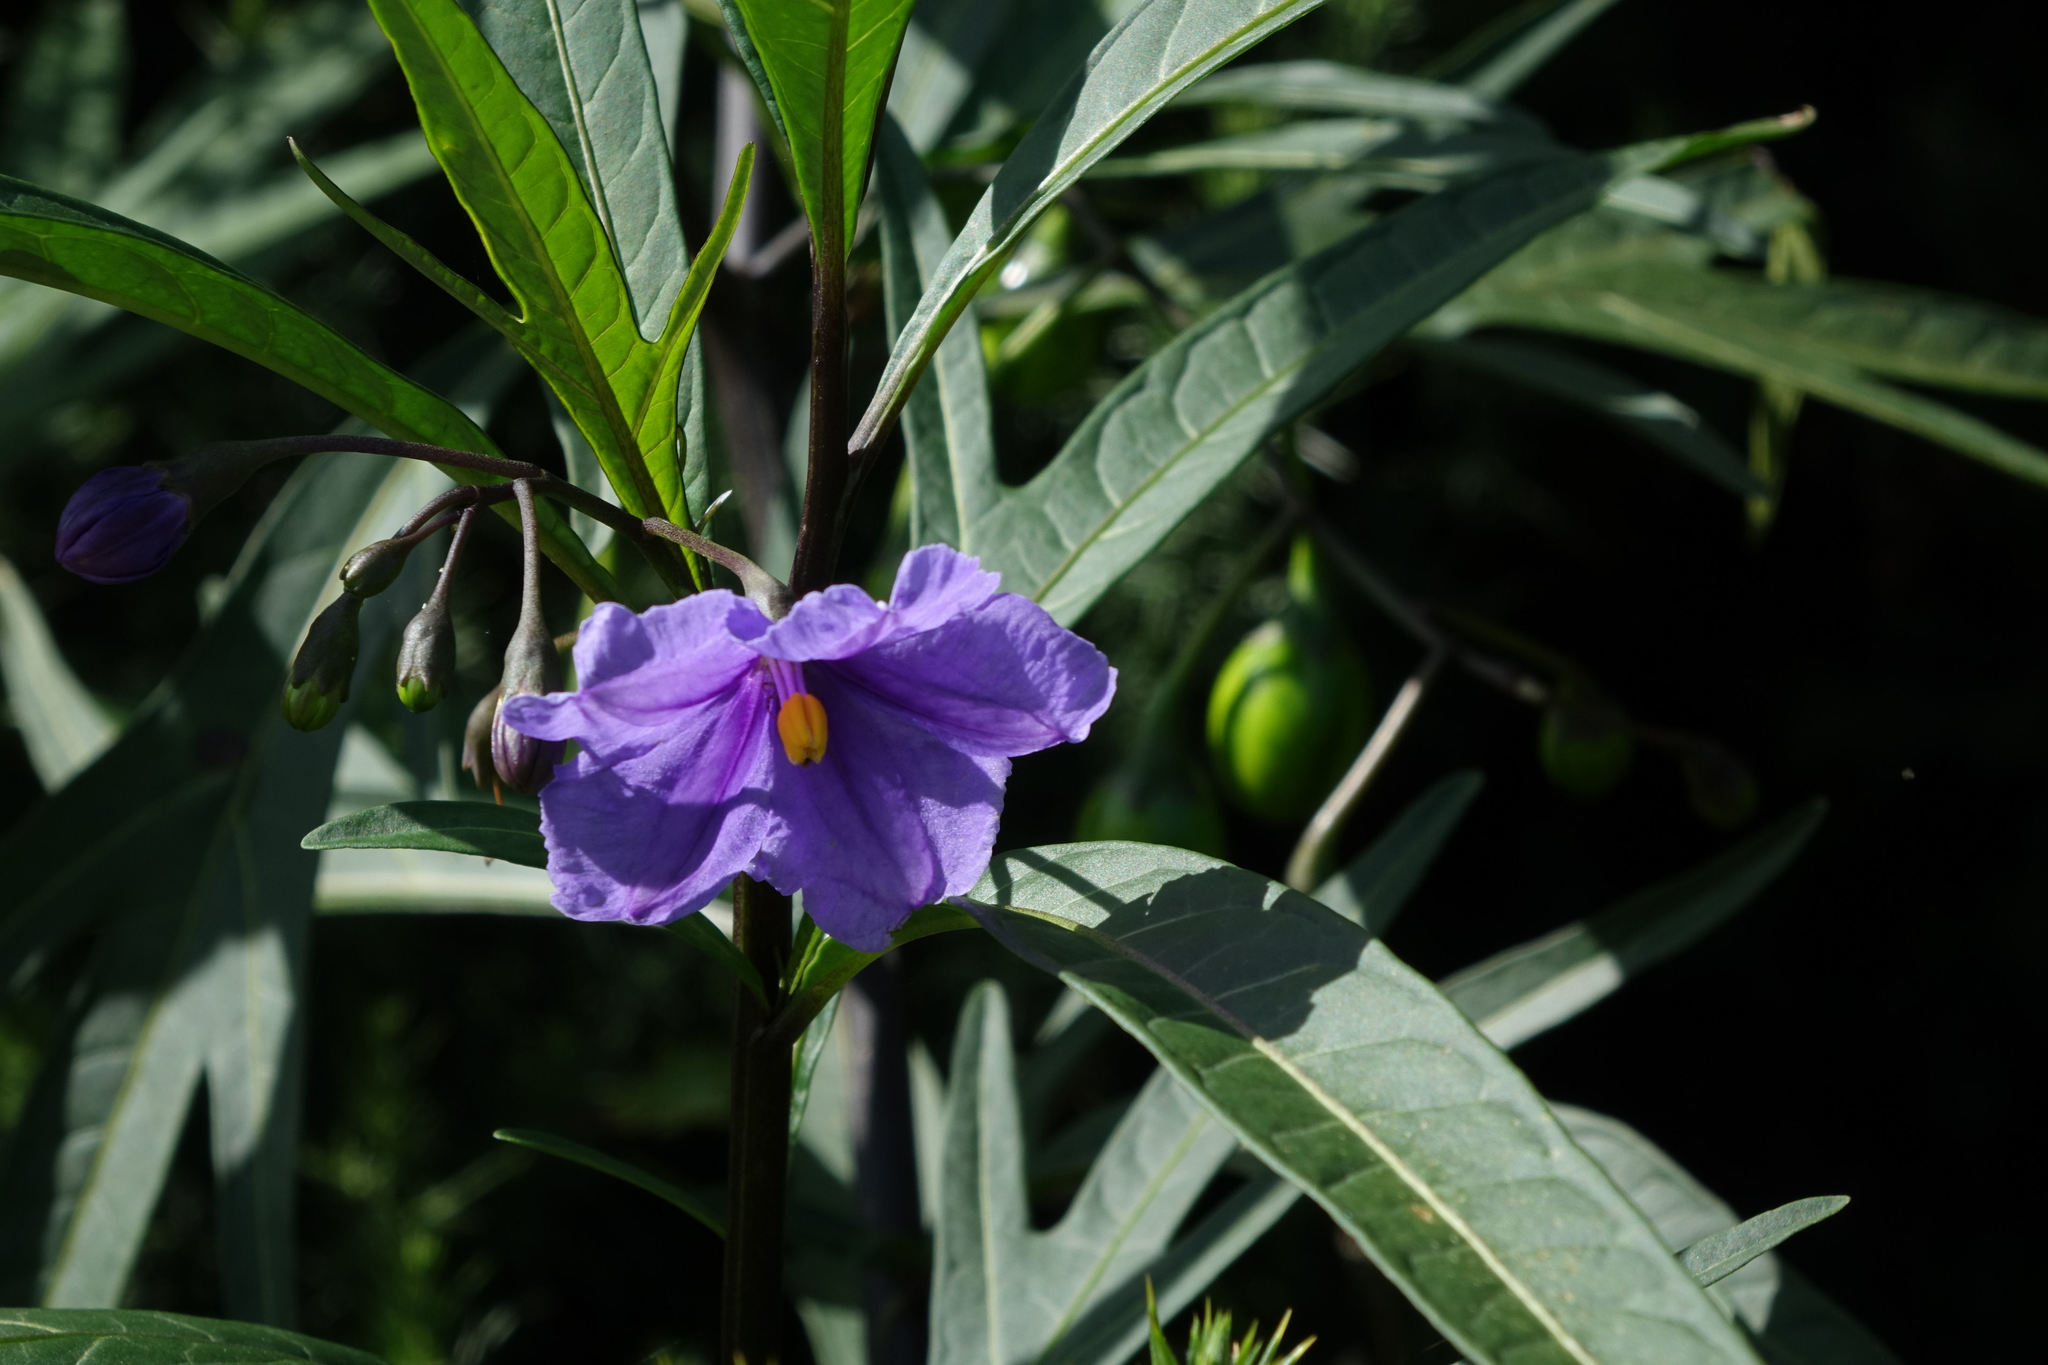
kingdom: Plantae
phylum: Tracheophyta
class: Magnoliopsida
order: Solanales
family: Solanaceae
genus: Solanum
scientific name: Solanum laciniatum
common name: Kangaroo-apple
